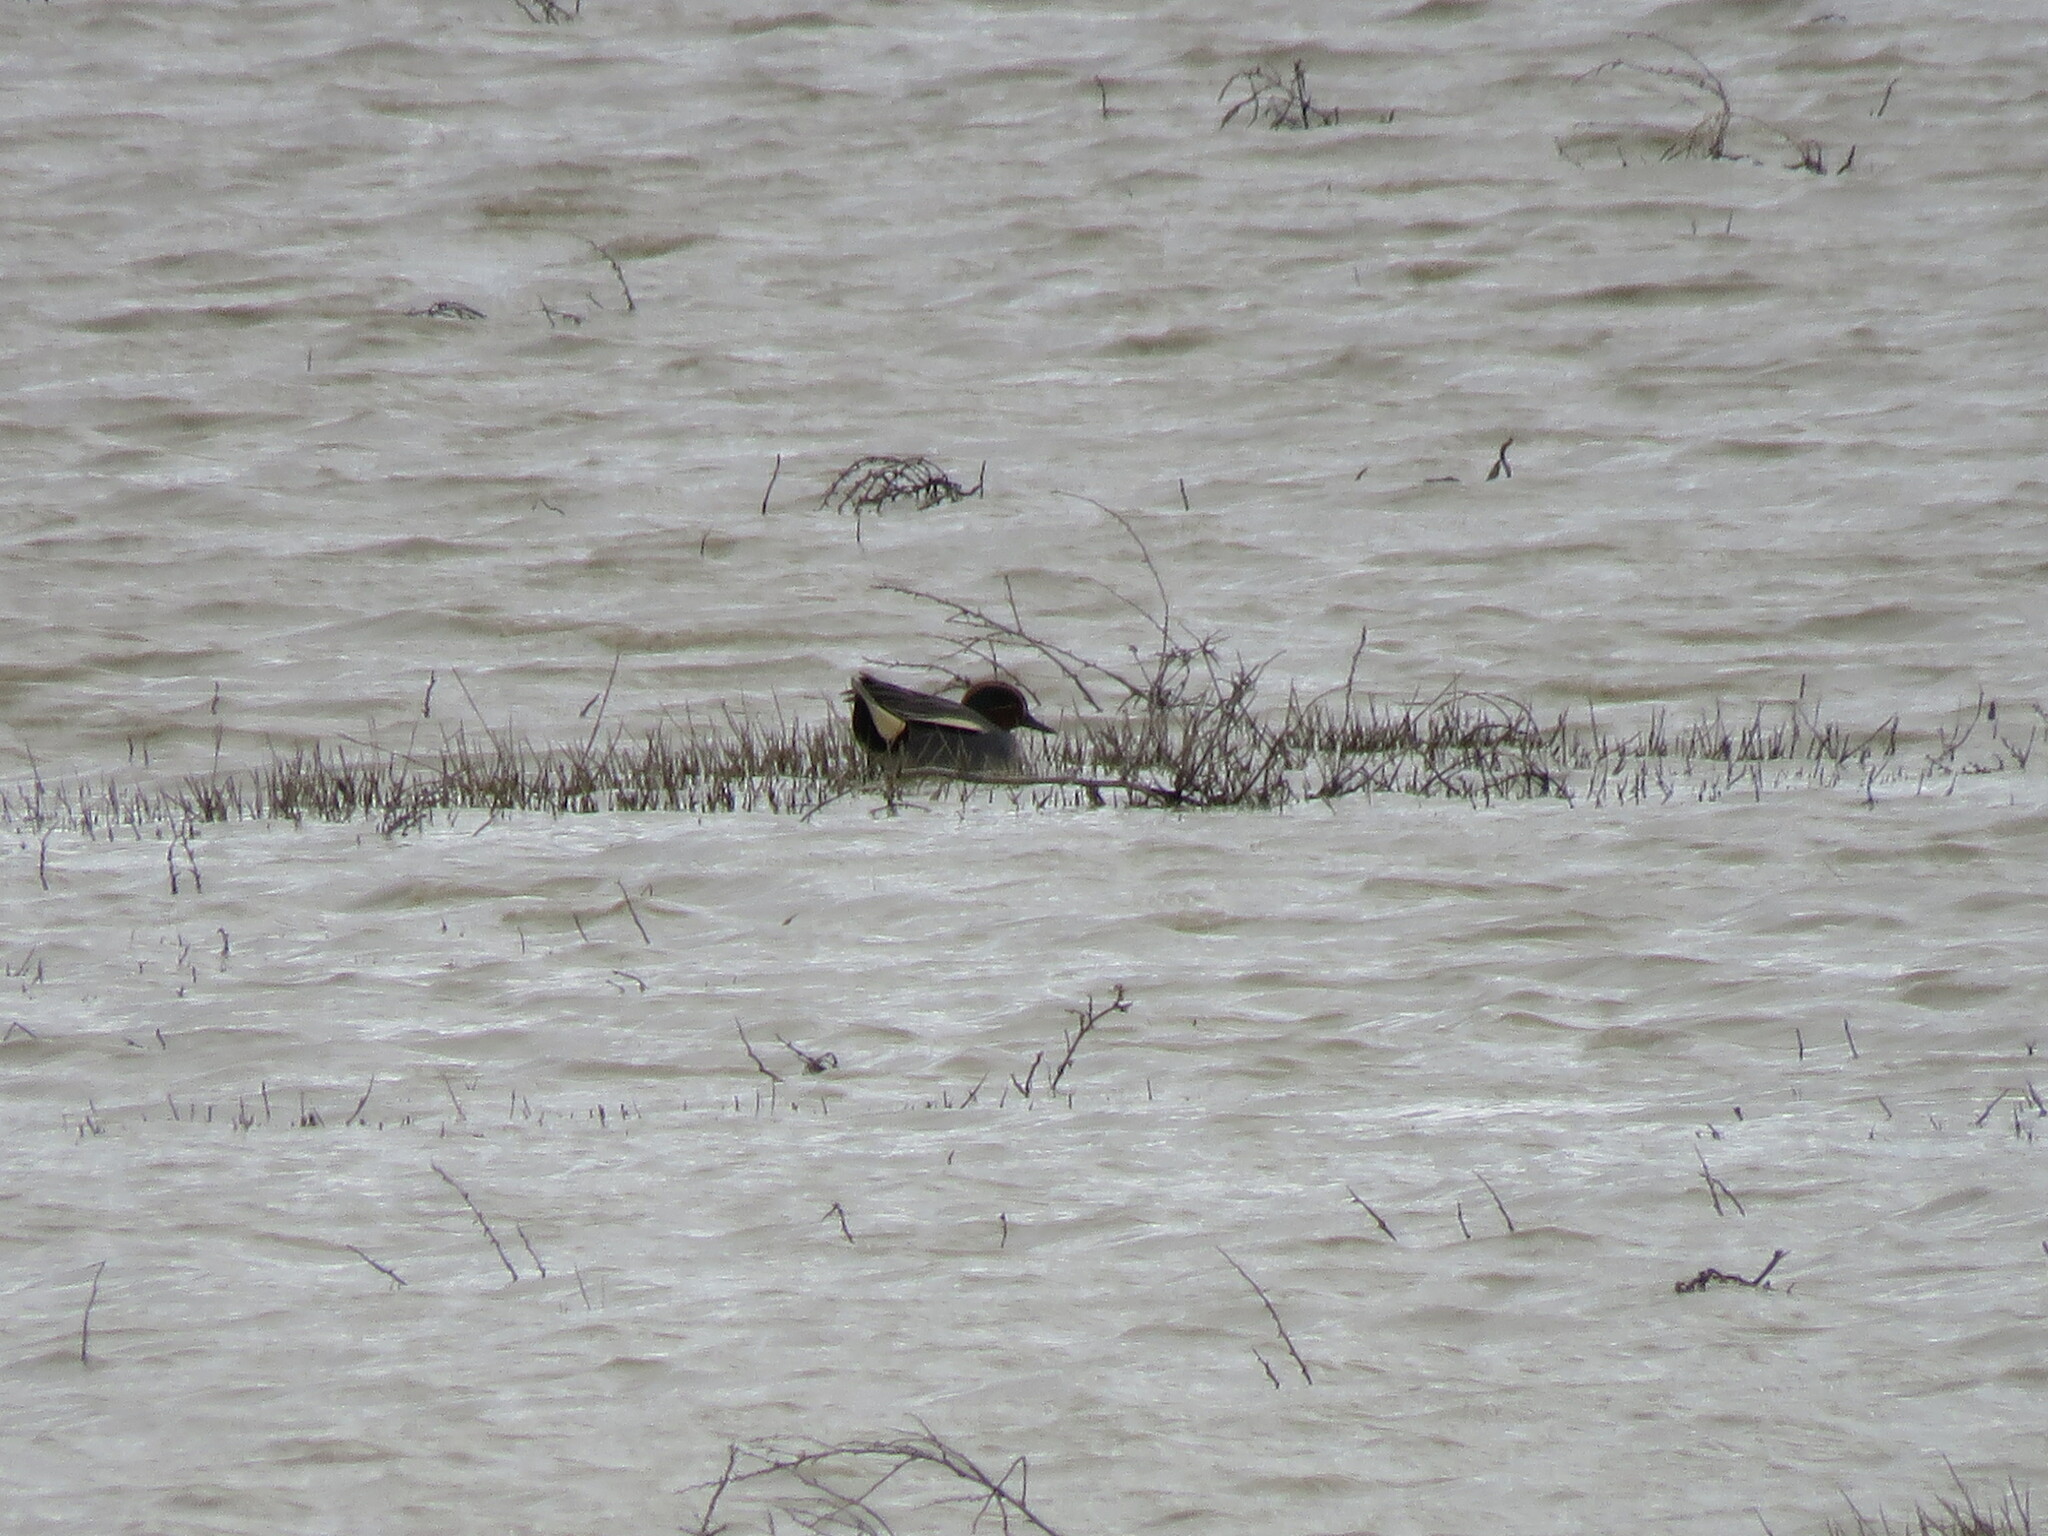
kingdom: Animalia
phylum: Chordata
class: Aves
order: Anseriformes
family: Anatidae
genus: Anas
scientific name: Anas crecca
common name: Eurasian teal
